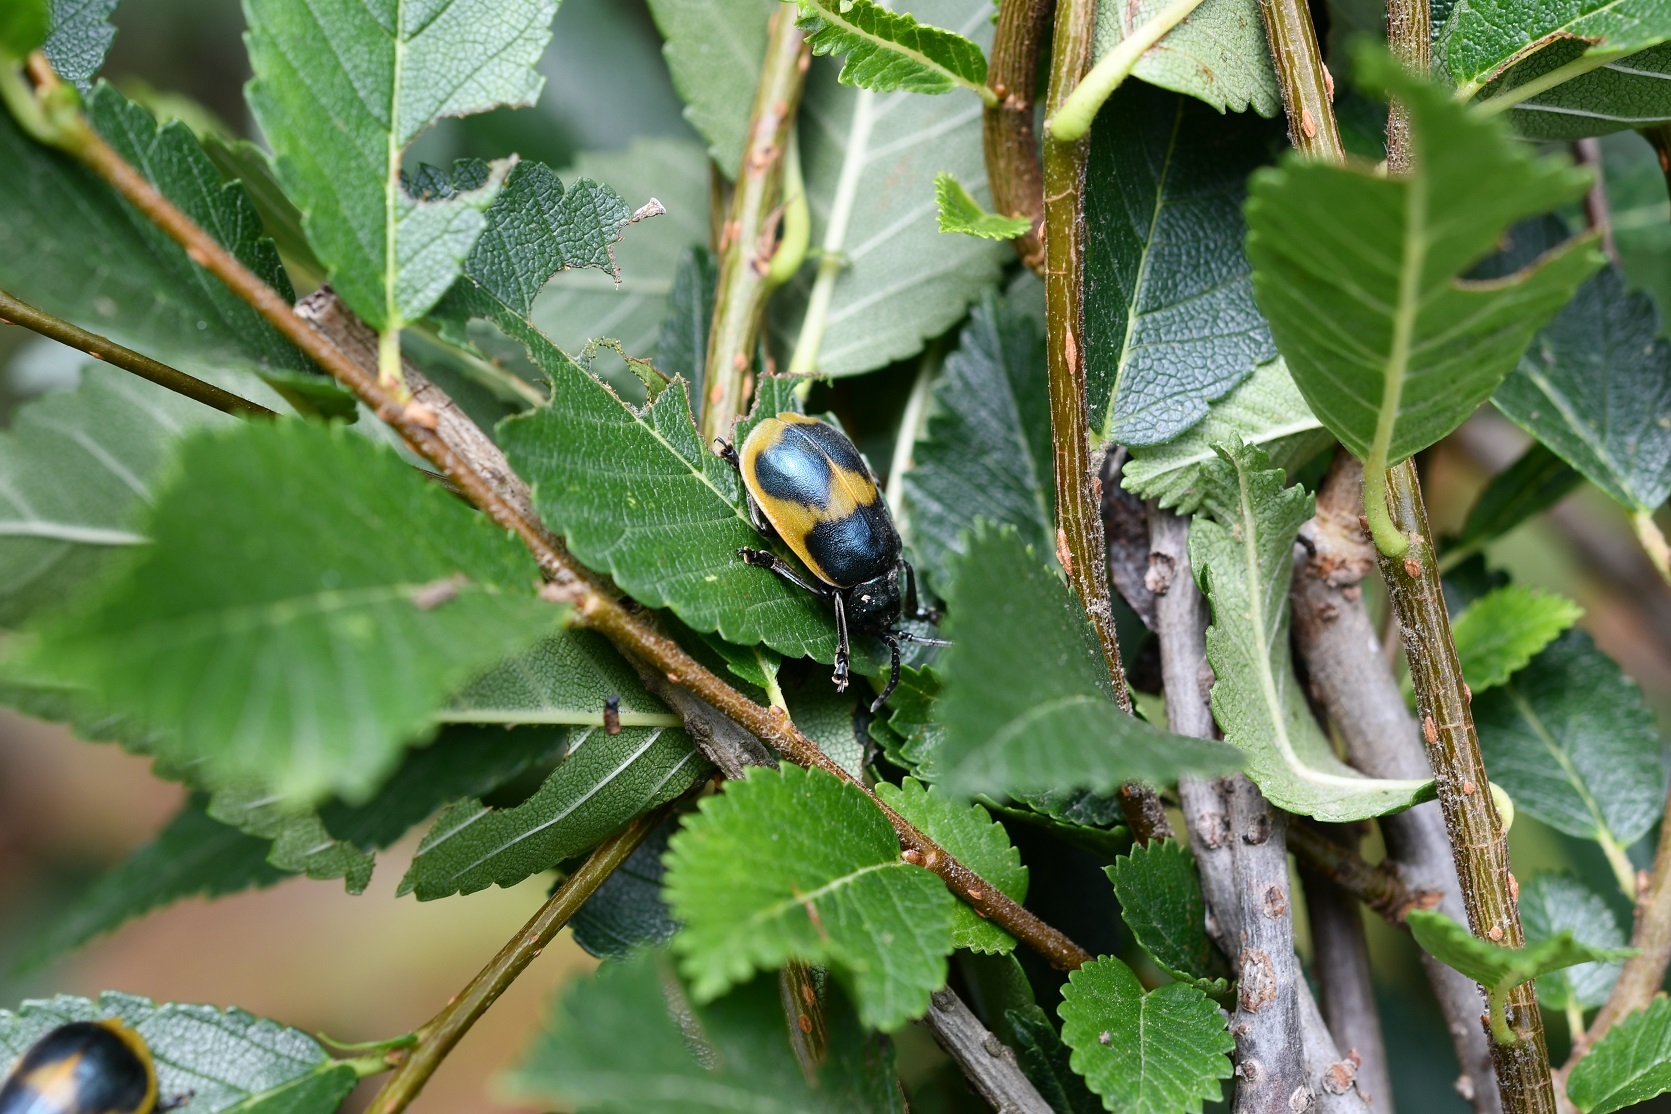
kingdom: Animalia
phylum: Arthropoda
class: Insecta
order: Coleoptera
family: Chrysomelidae
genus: Monocesta
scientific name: Monocesta
